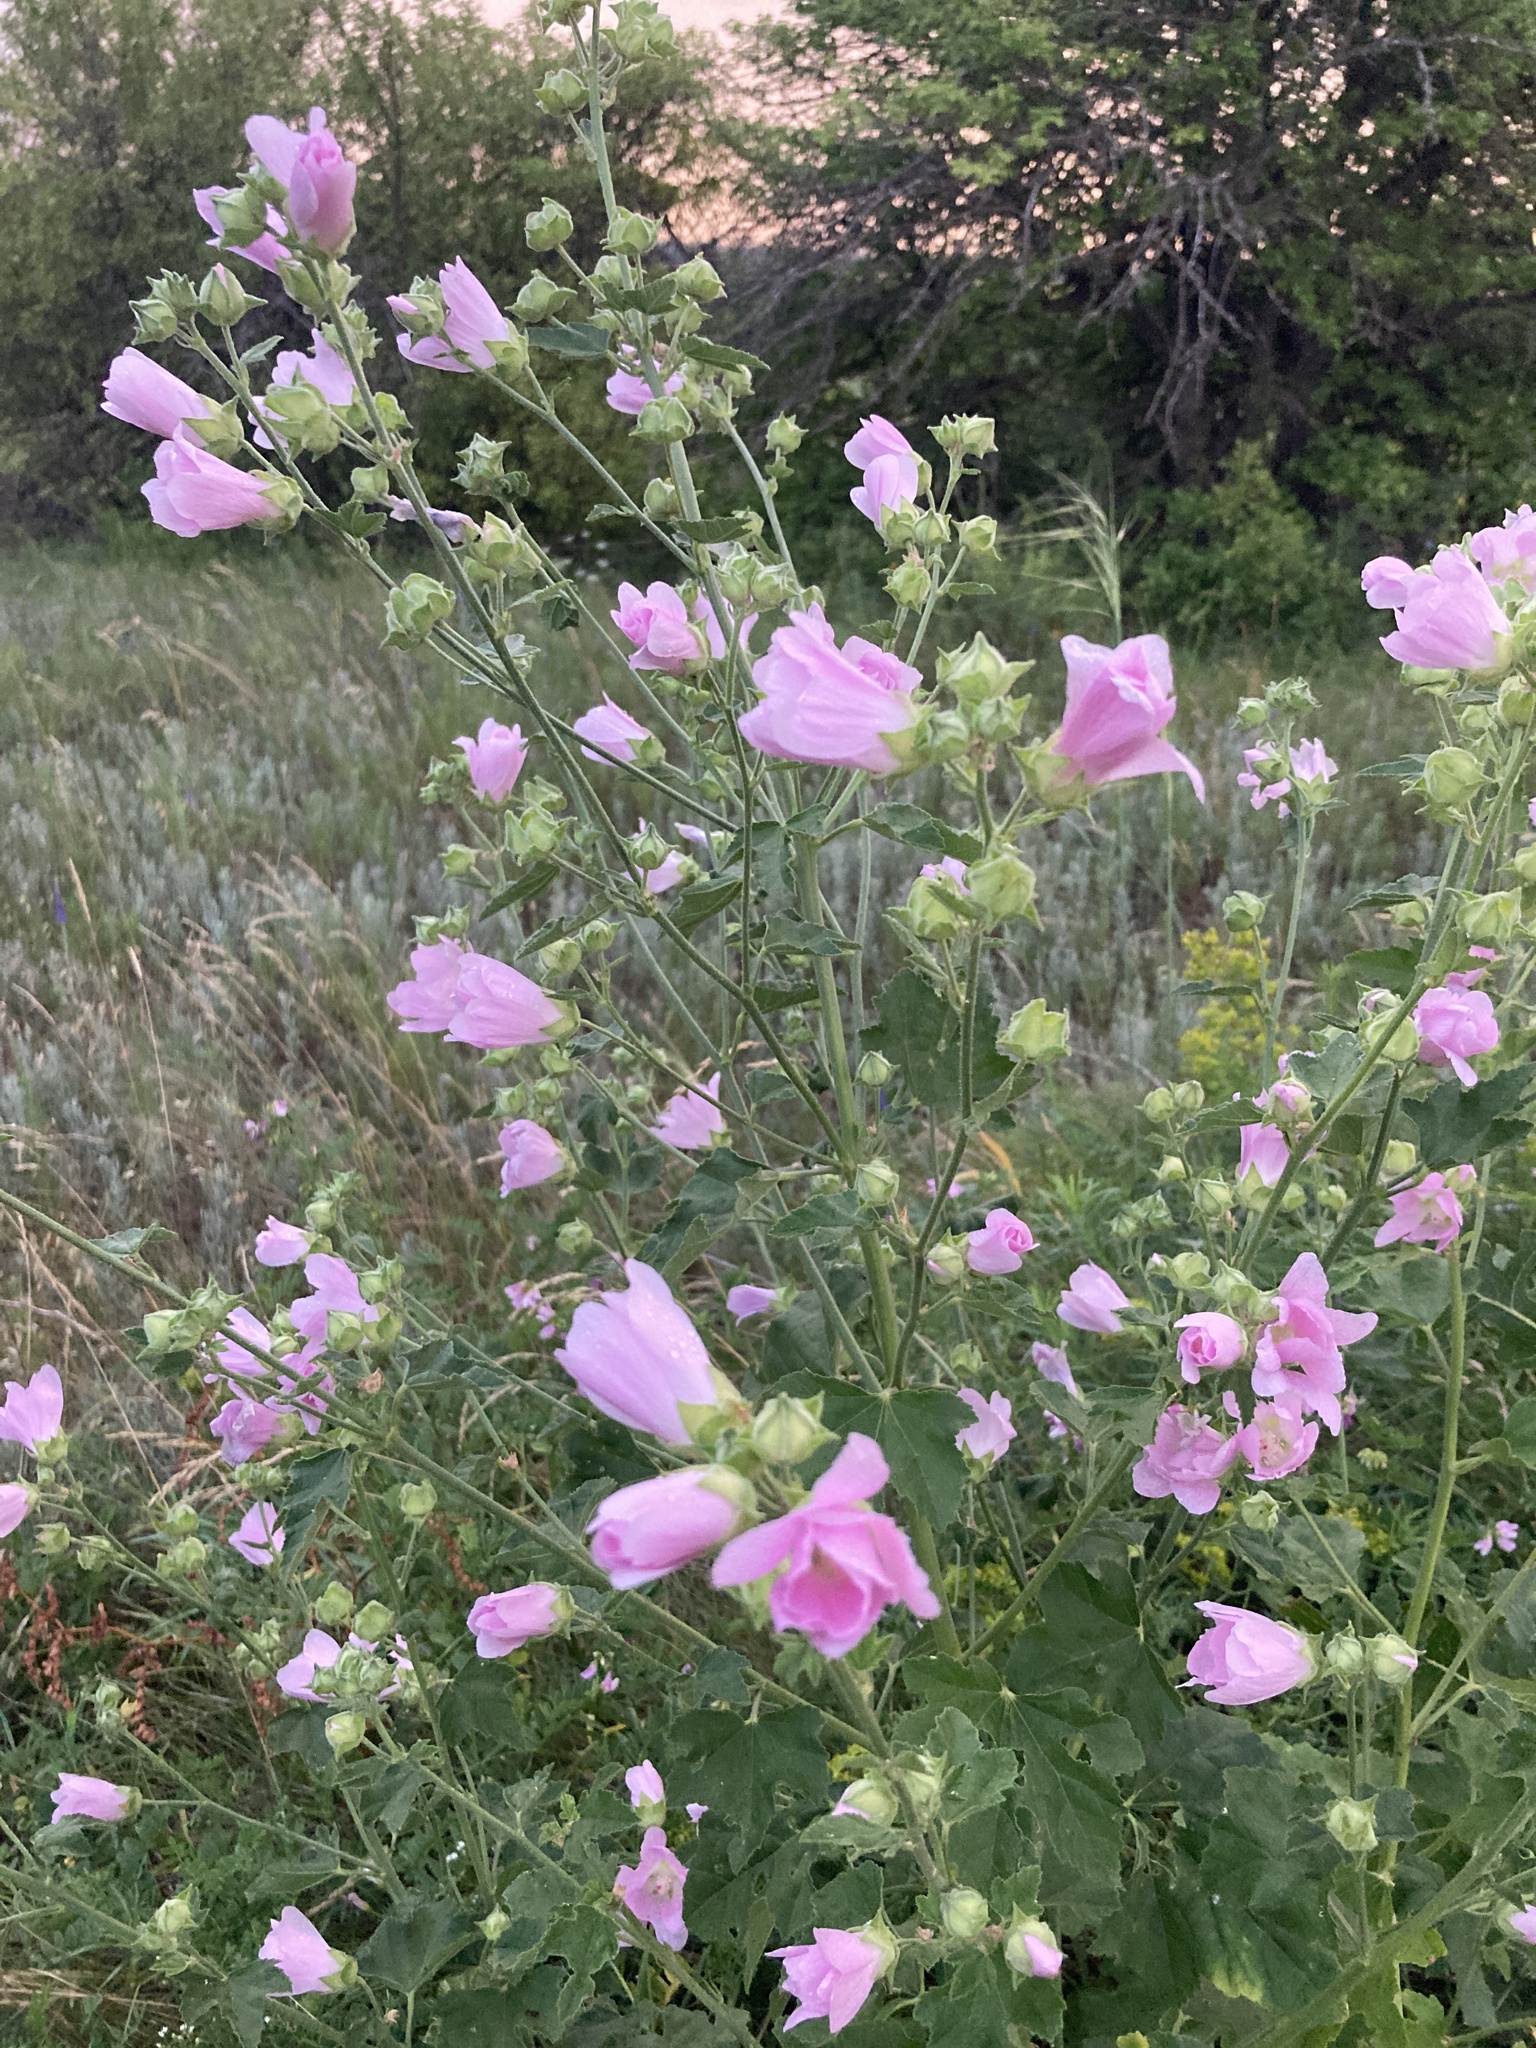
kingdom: Plantae
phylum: Tracheophyta
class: Magnoliopsida
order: Malvales
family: Malvaceae
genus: Malva
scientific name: Malva thuringiaca
